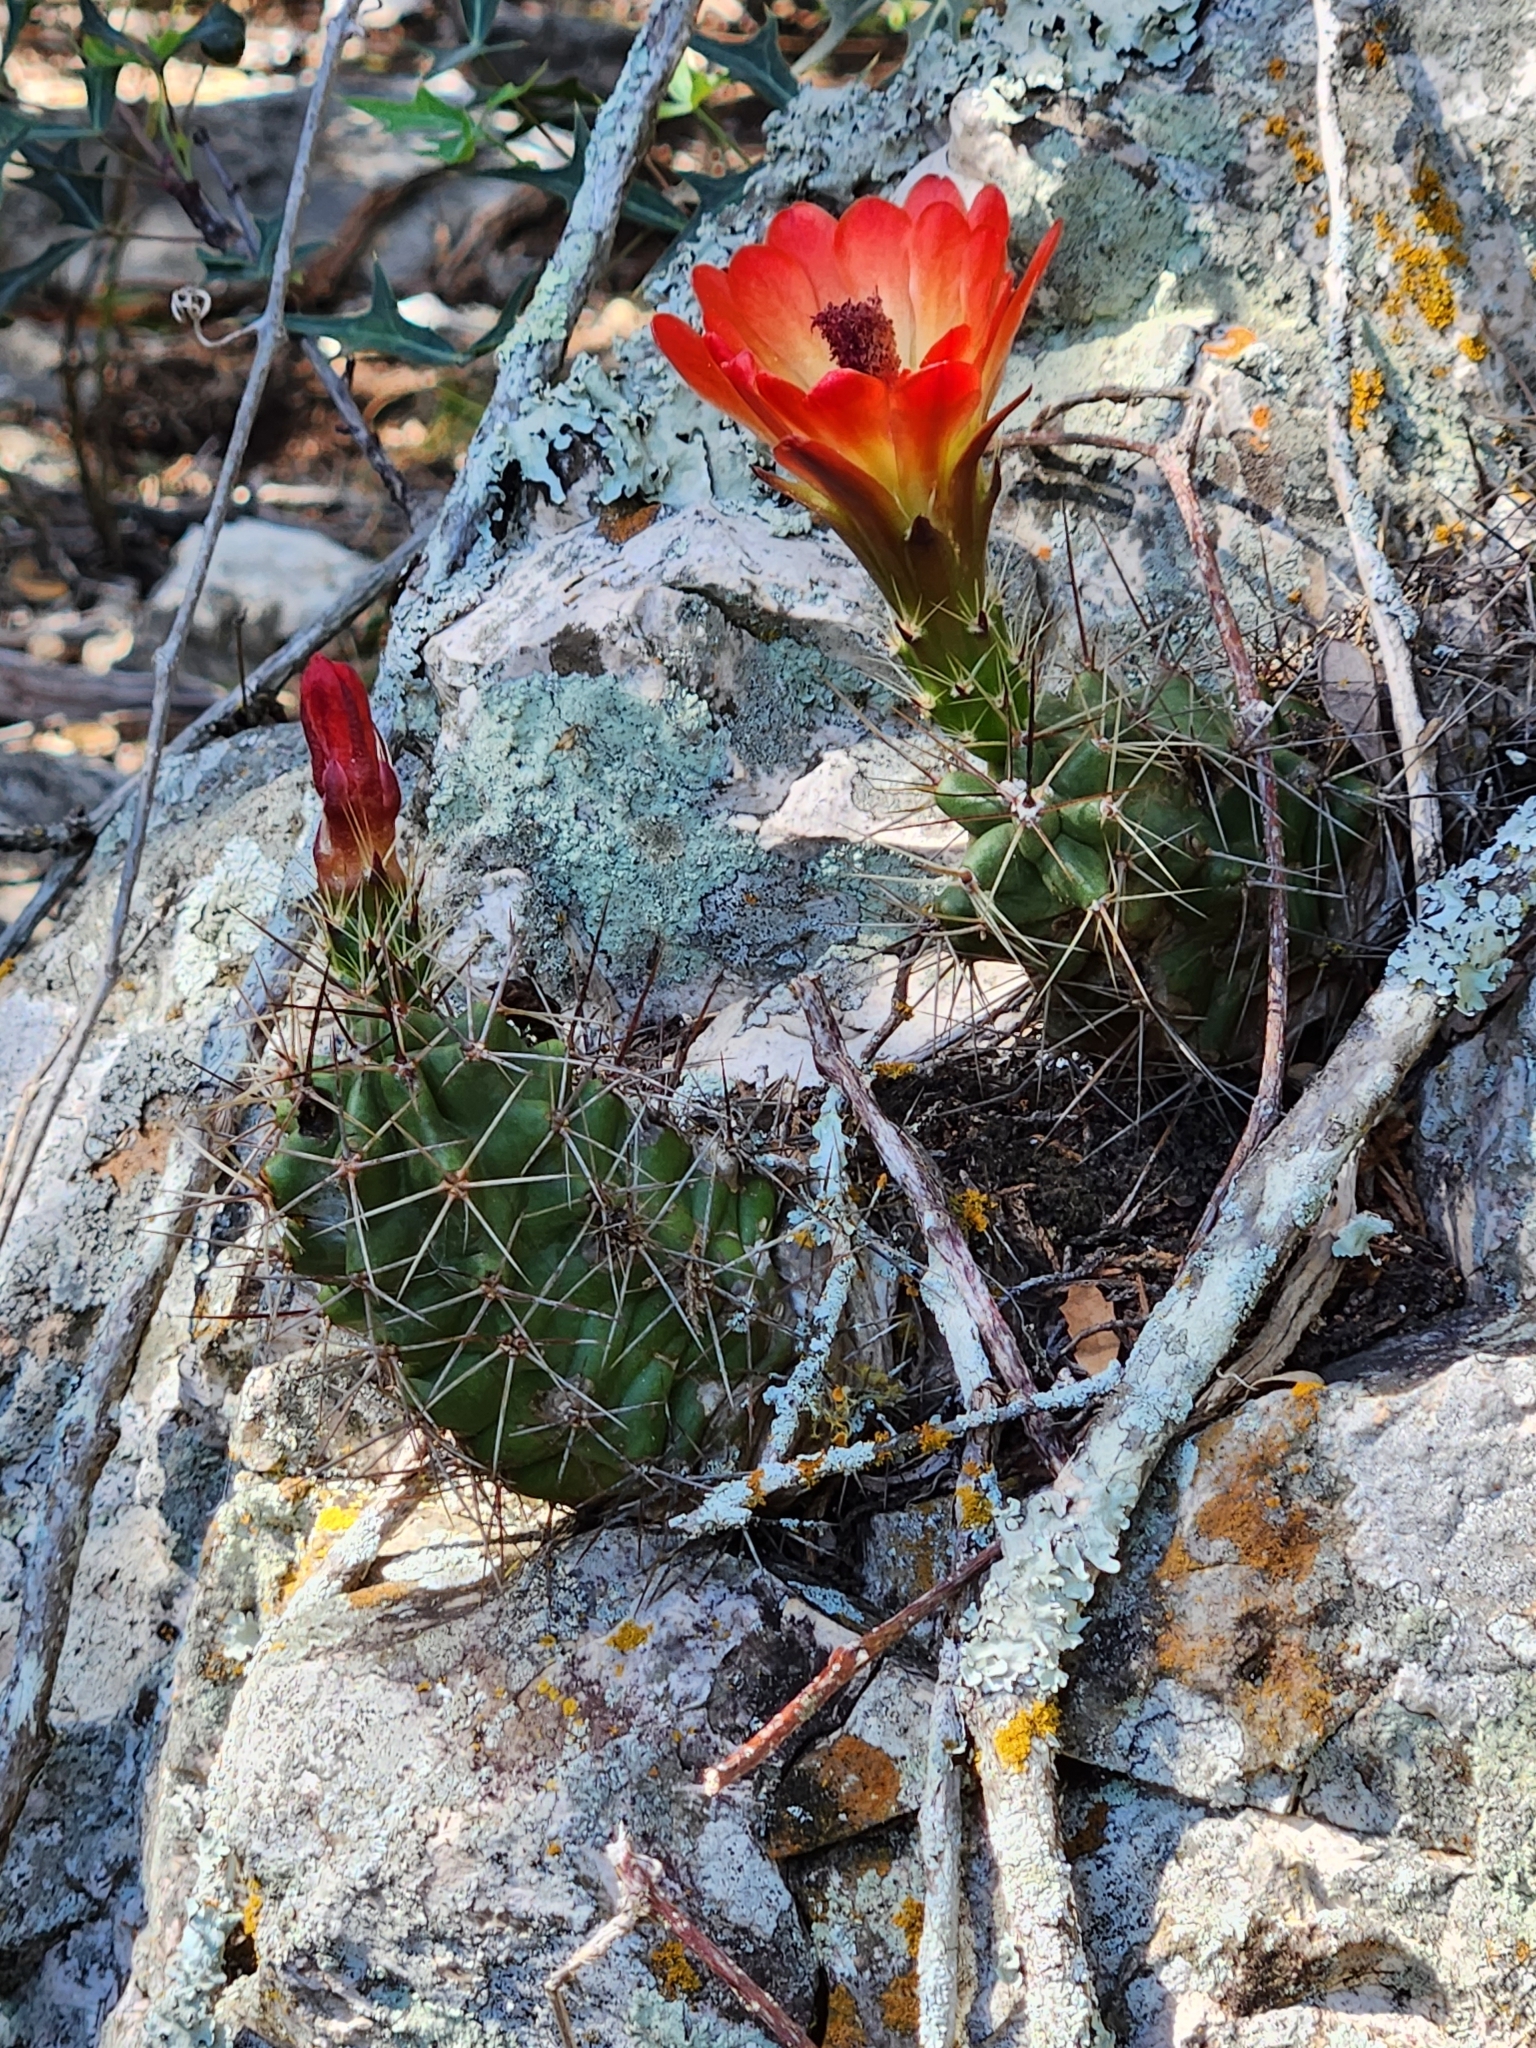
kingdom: Plantae
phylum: Tracheophyta
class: Magnoliopsida
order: Caryophyllales
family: Cactaceae
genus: Echinocereus
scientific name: Echinocereus coccineus
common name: Scarlet hedgehog cactus
